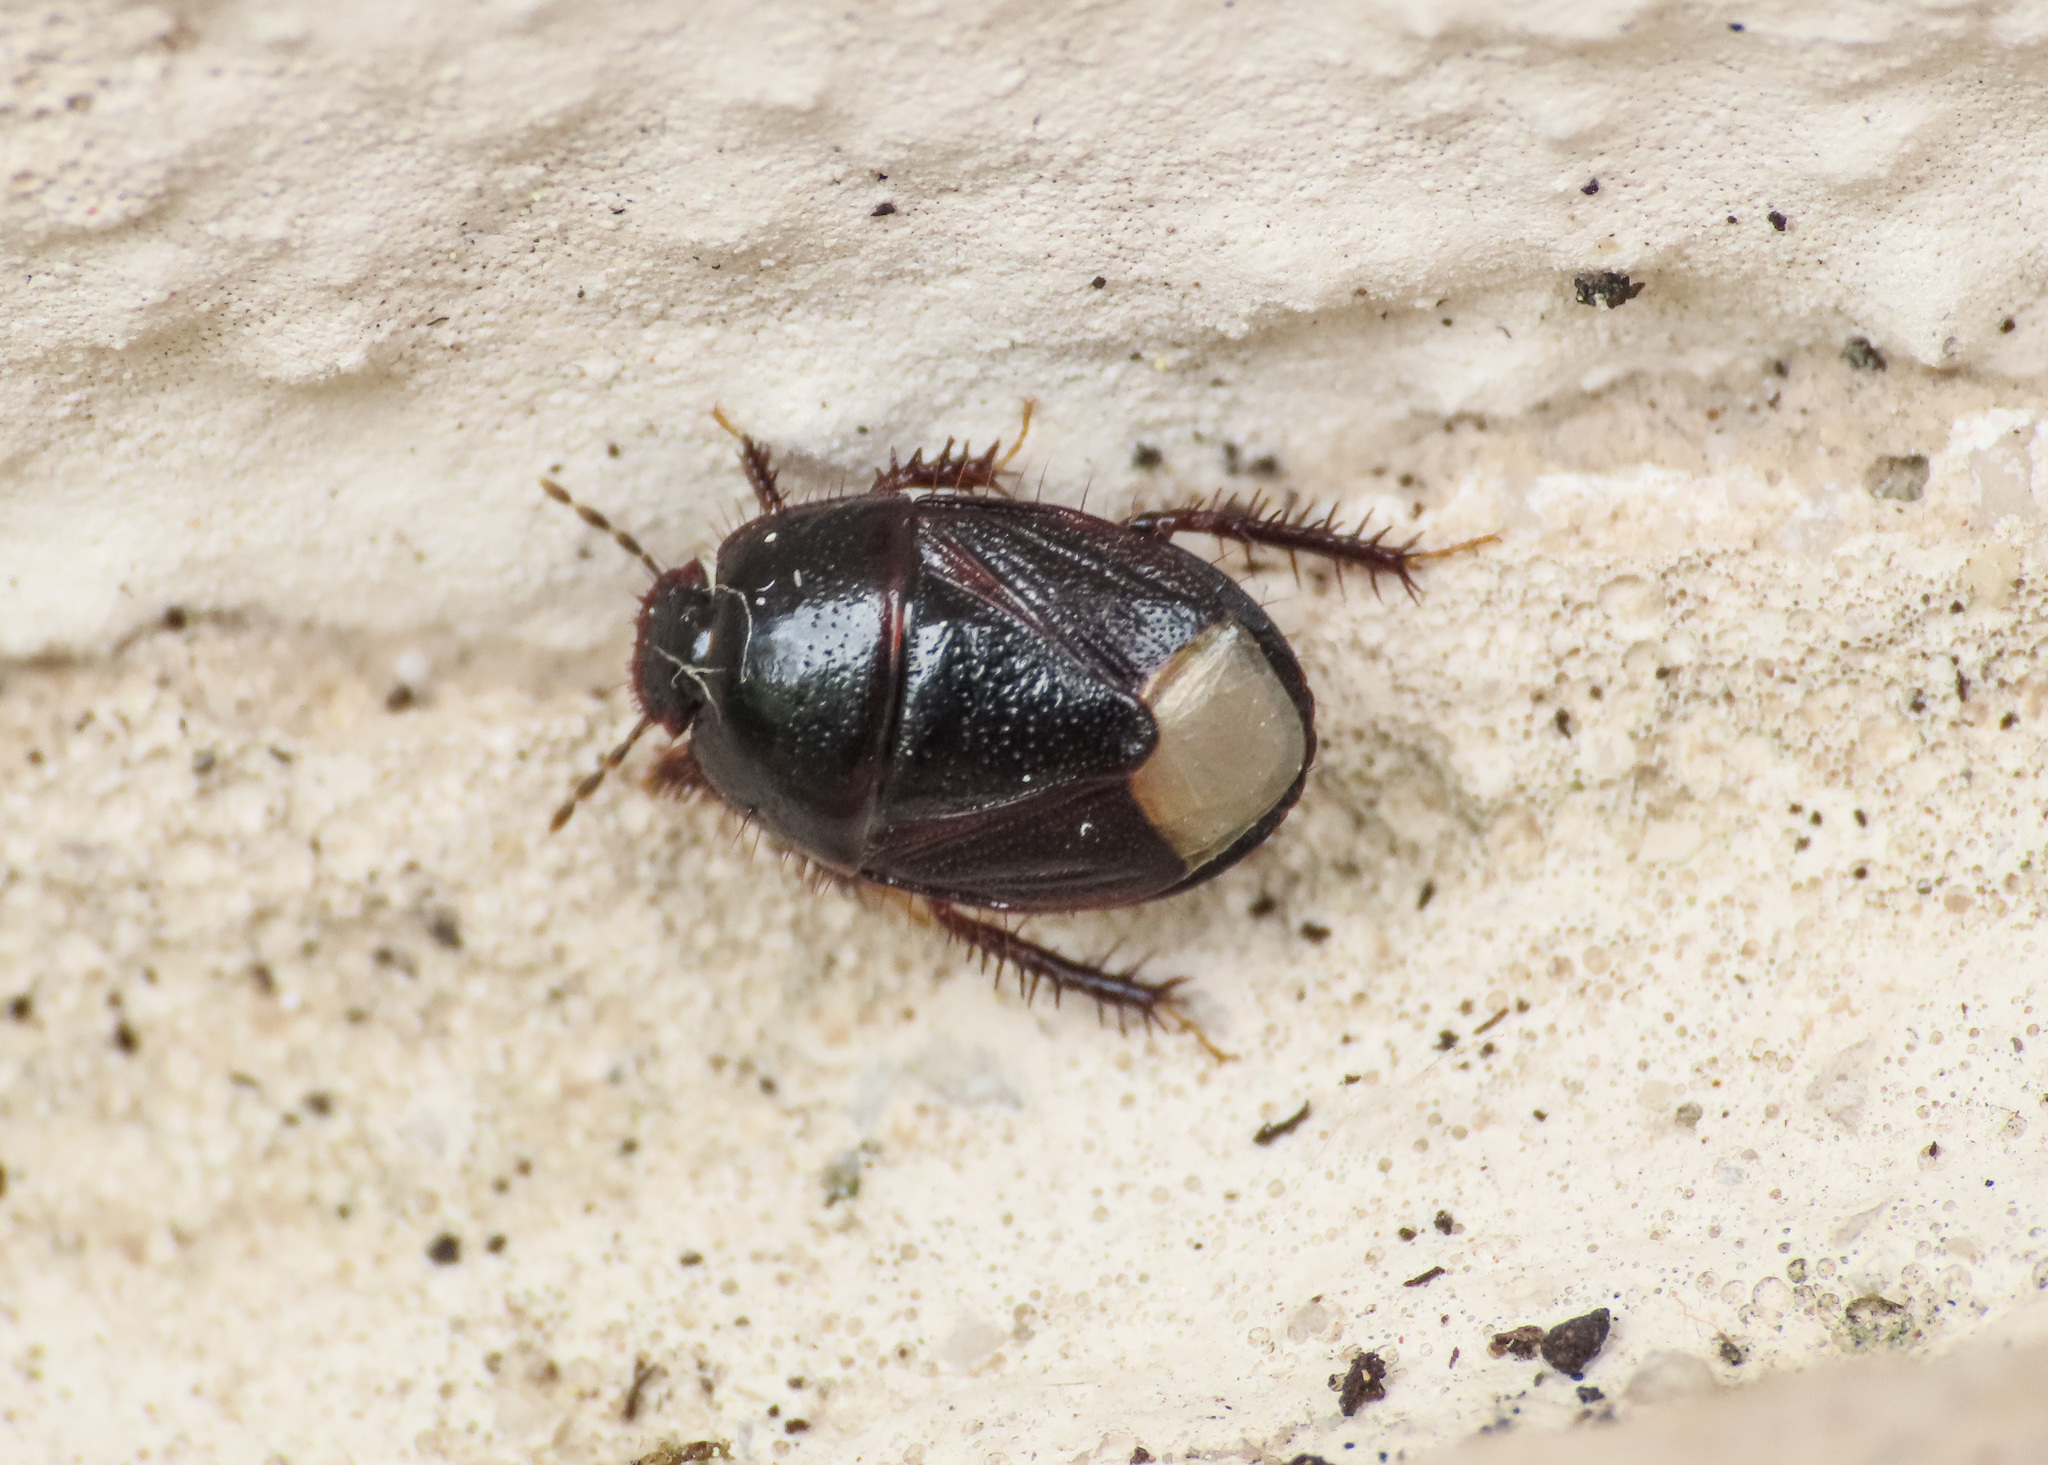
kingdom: Animalia
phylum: Arthropoda
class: Insecta
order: Hemiptera
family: Cydnidae
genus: Microporus
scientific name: Microporus nigrita
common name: Burrower bug
